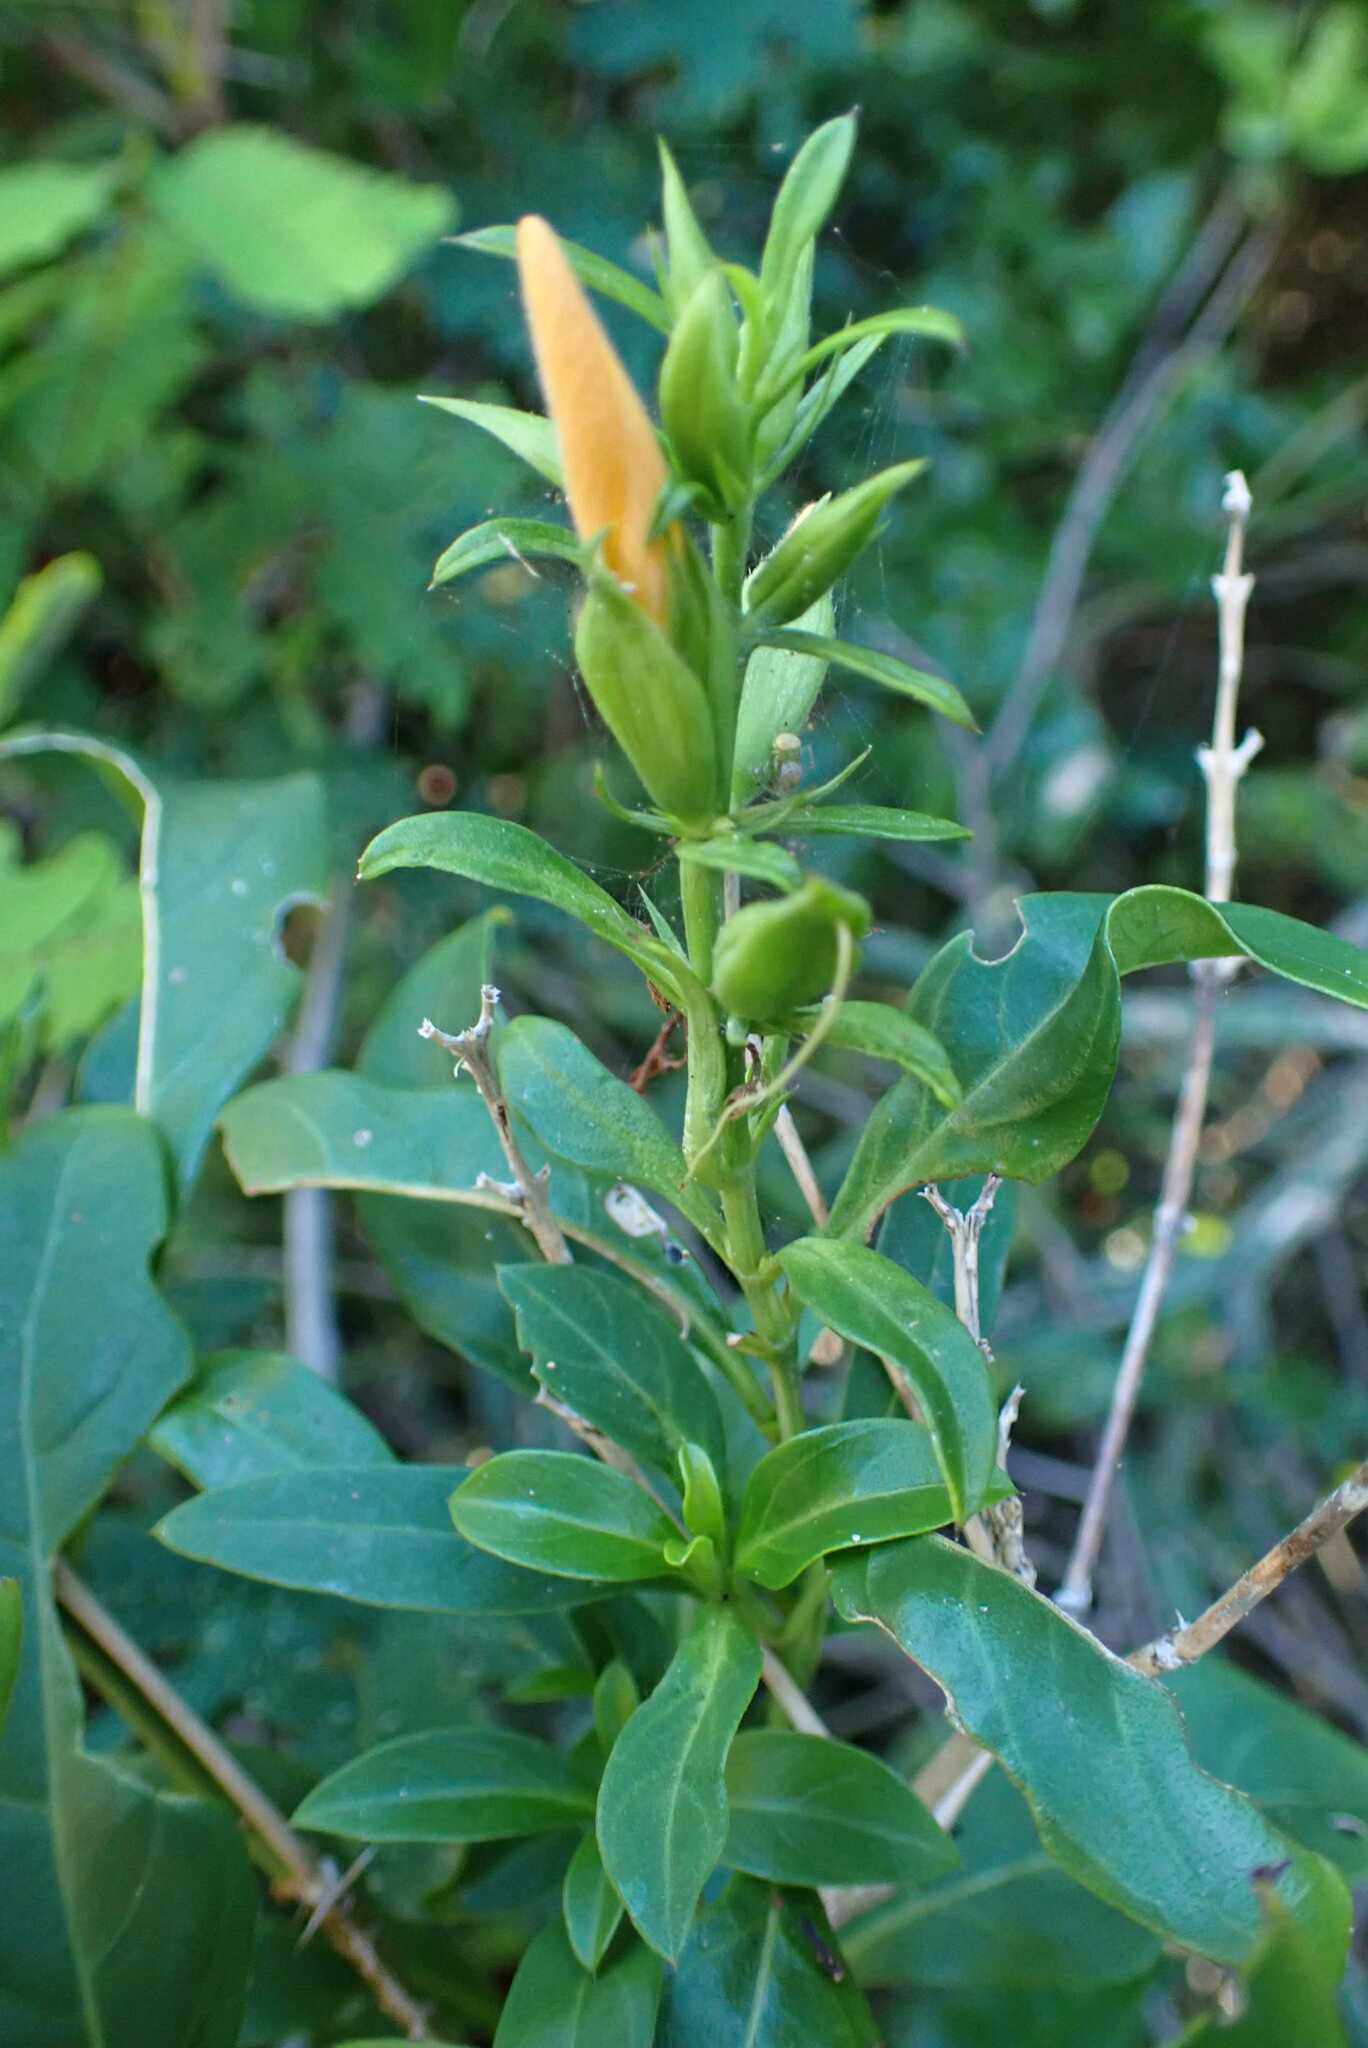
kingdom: Plantae
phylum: Tracheophyta
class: Magnoliopsida
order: Lamiales
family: Acanthaceae
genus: Barleria
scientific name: Barleria delagoensis
